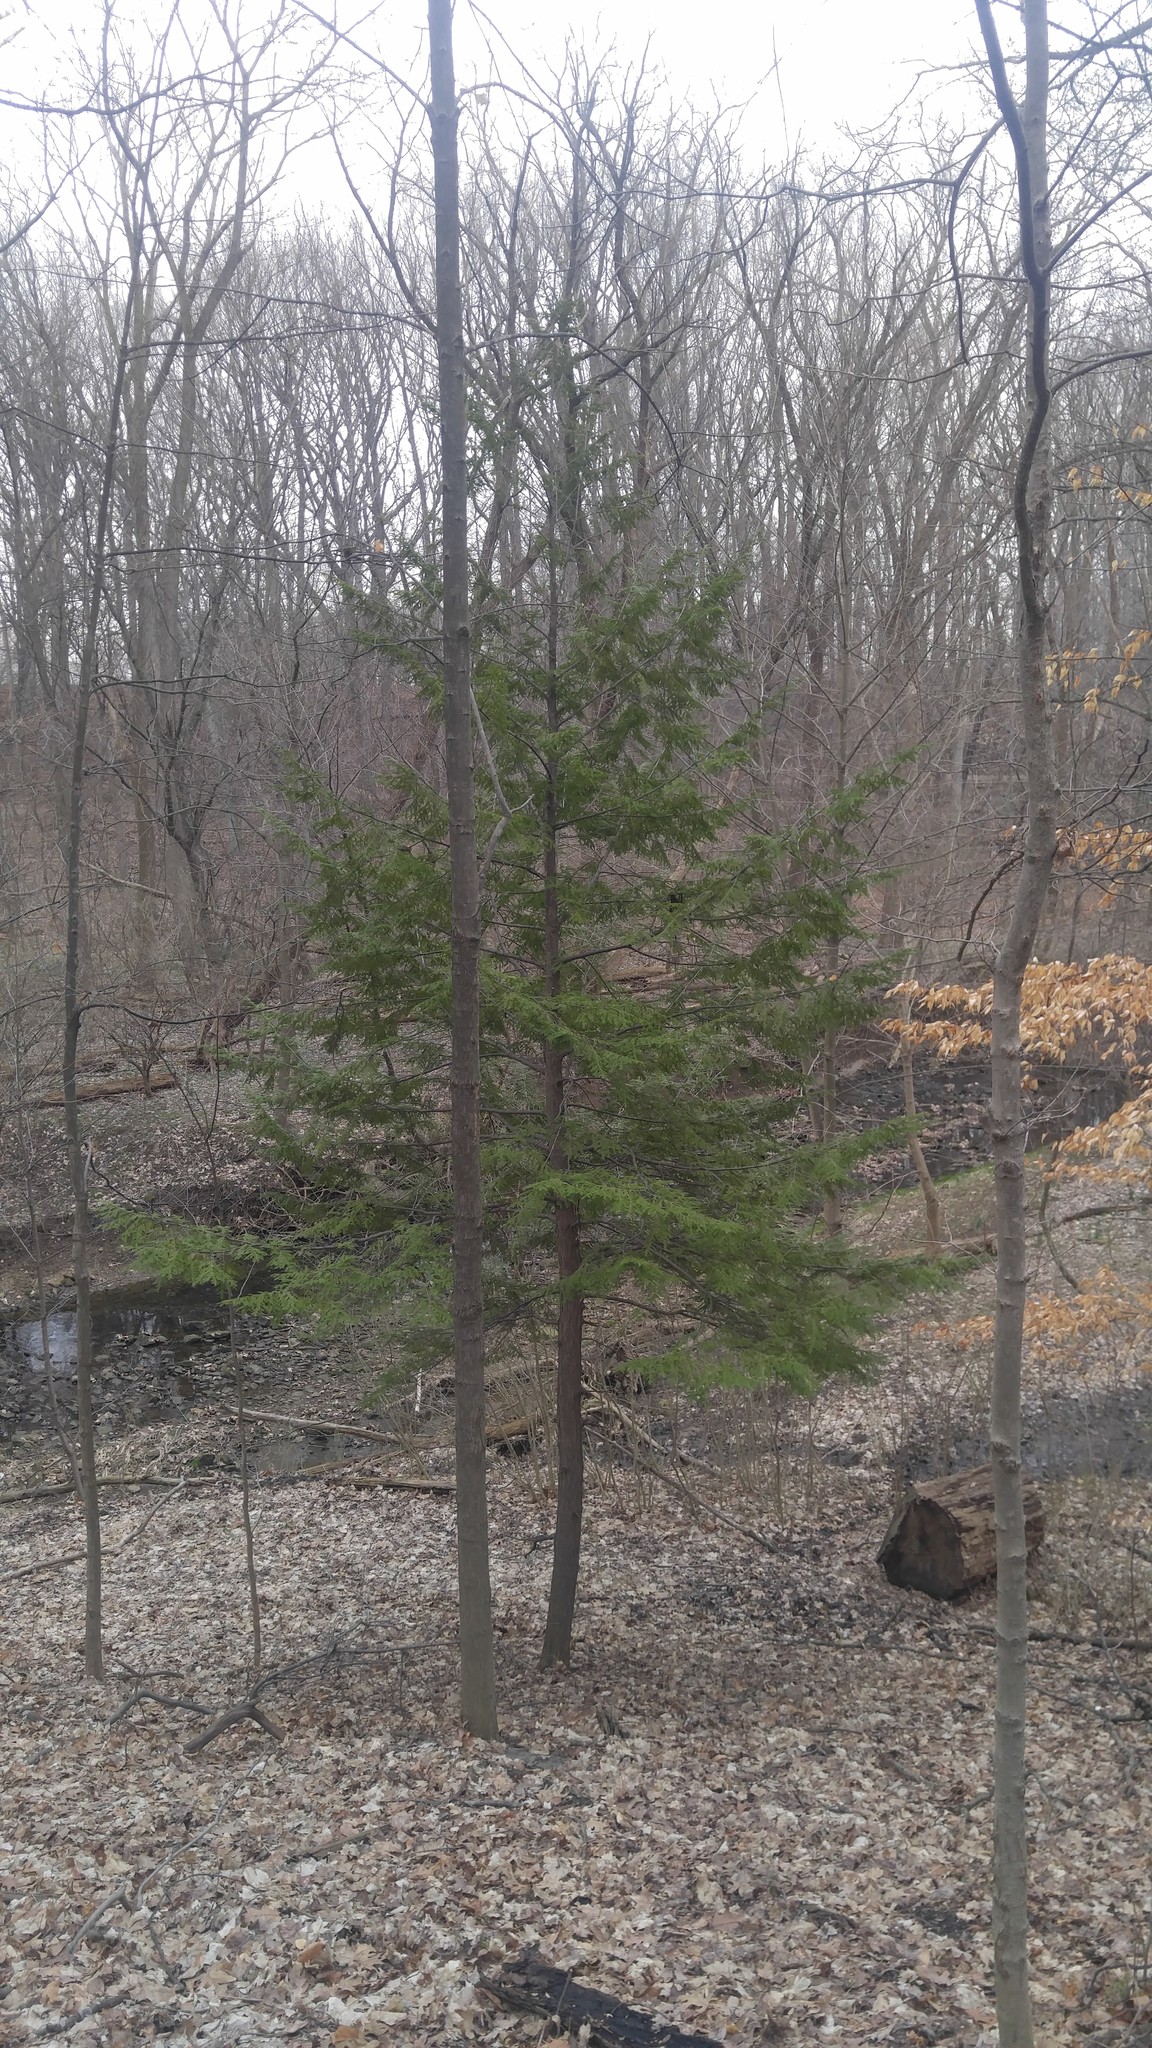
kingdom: Plantae
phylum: Tracheophyta
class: Pinopsida
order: Pinales
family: Pinaceae
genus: Tsuga
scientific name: Tsuga canadensis
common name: Eastern hemlock
